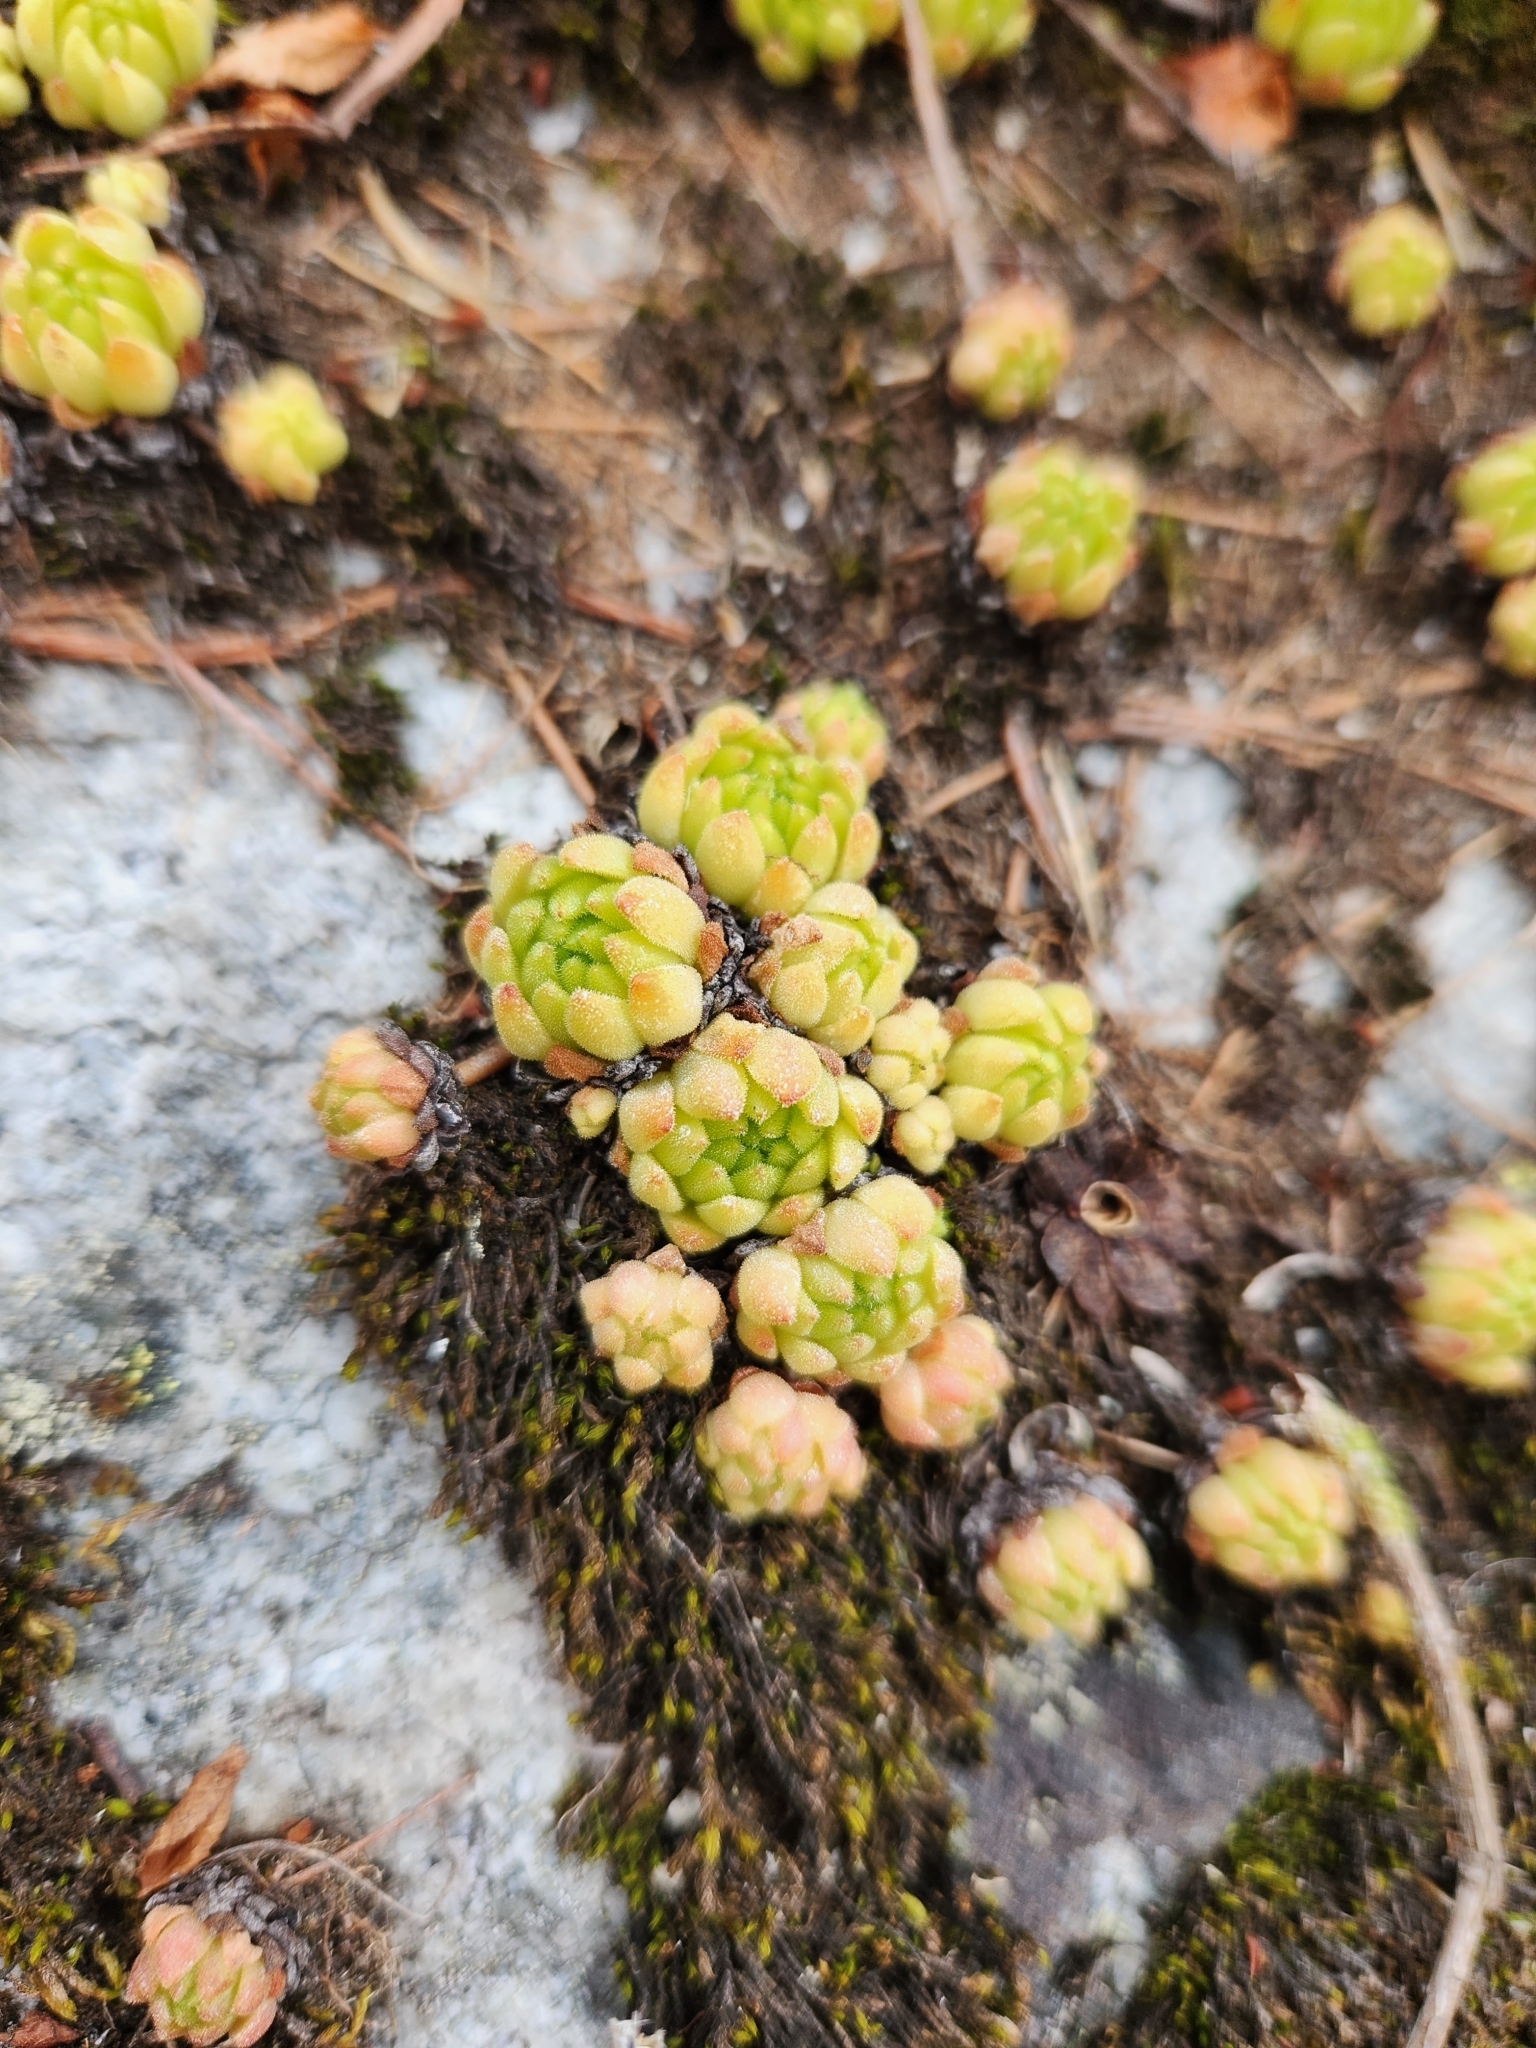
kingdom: Plantae
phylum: Tracheophyta
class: Magnoliopsida
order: Saxifragales
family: Crassulaceae
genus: Sempervivum
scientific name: Sempervivum montanum
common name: Mountain house-leek
